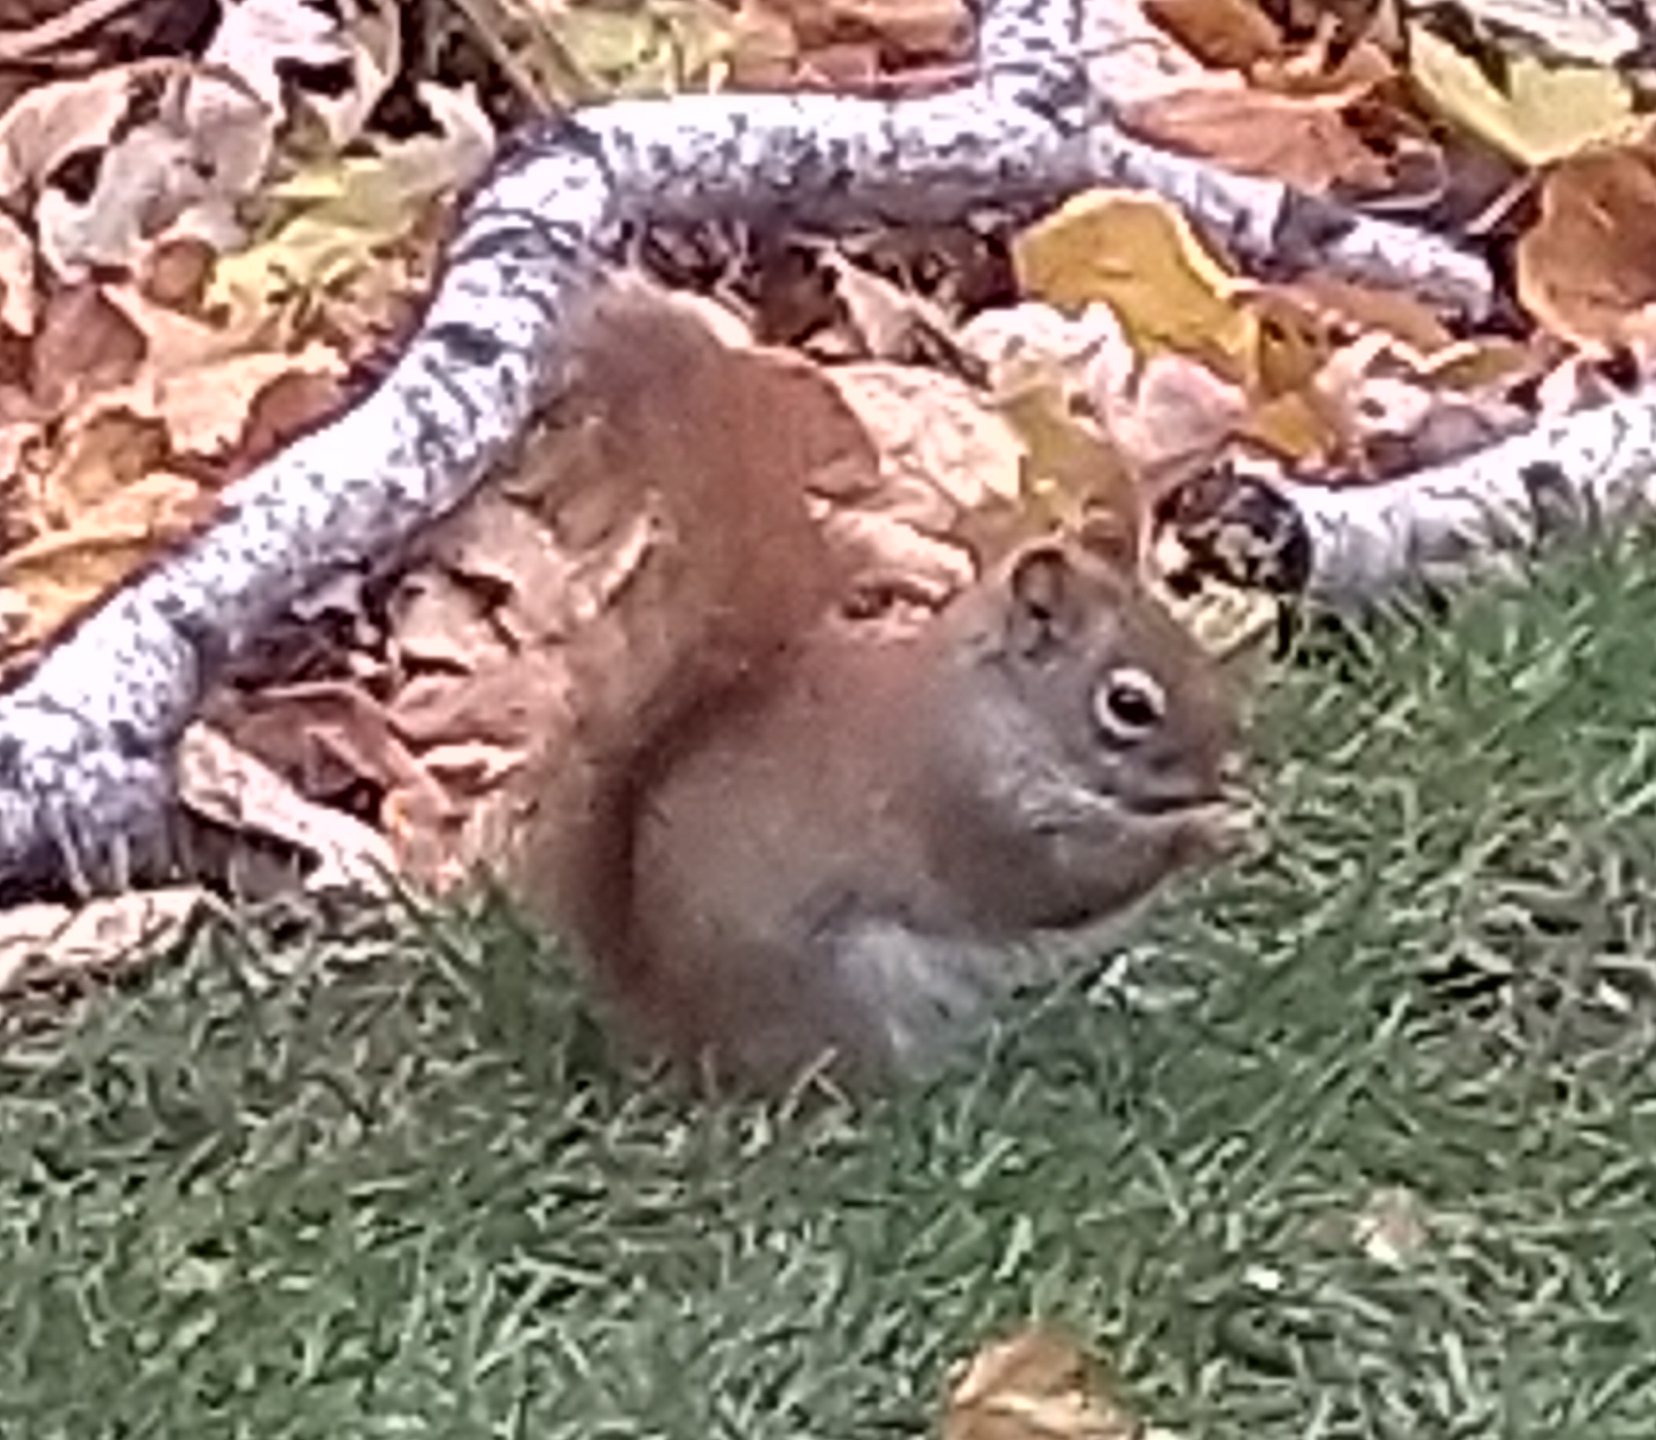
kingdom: Animalia
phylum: Chordata
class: Mammalia
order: Rodentia
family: Sciuridae
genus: Tamiasciurus
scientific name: Tamiasciurus hudsonicus
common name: Red squirrel
